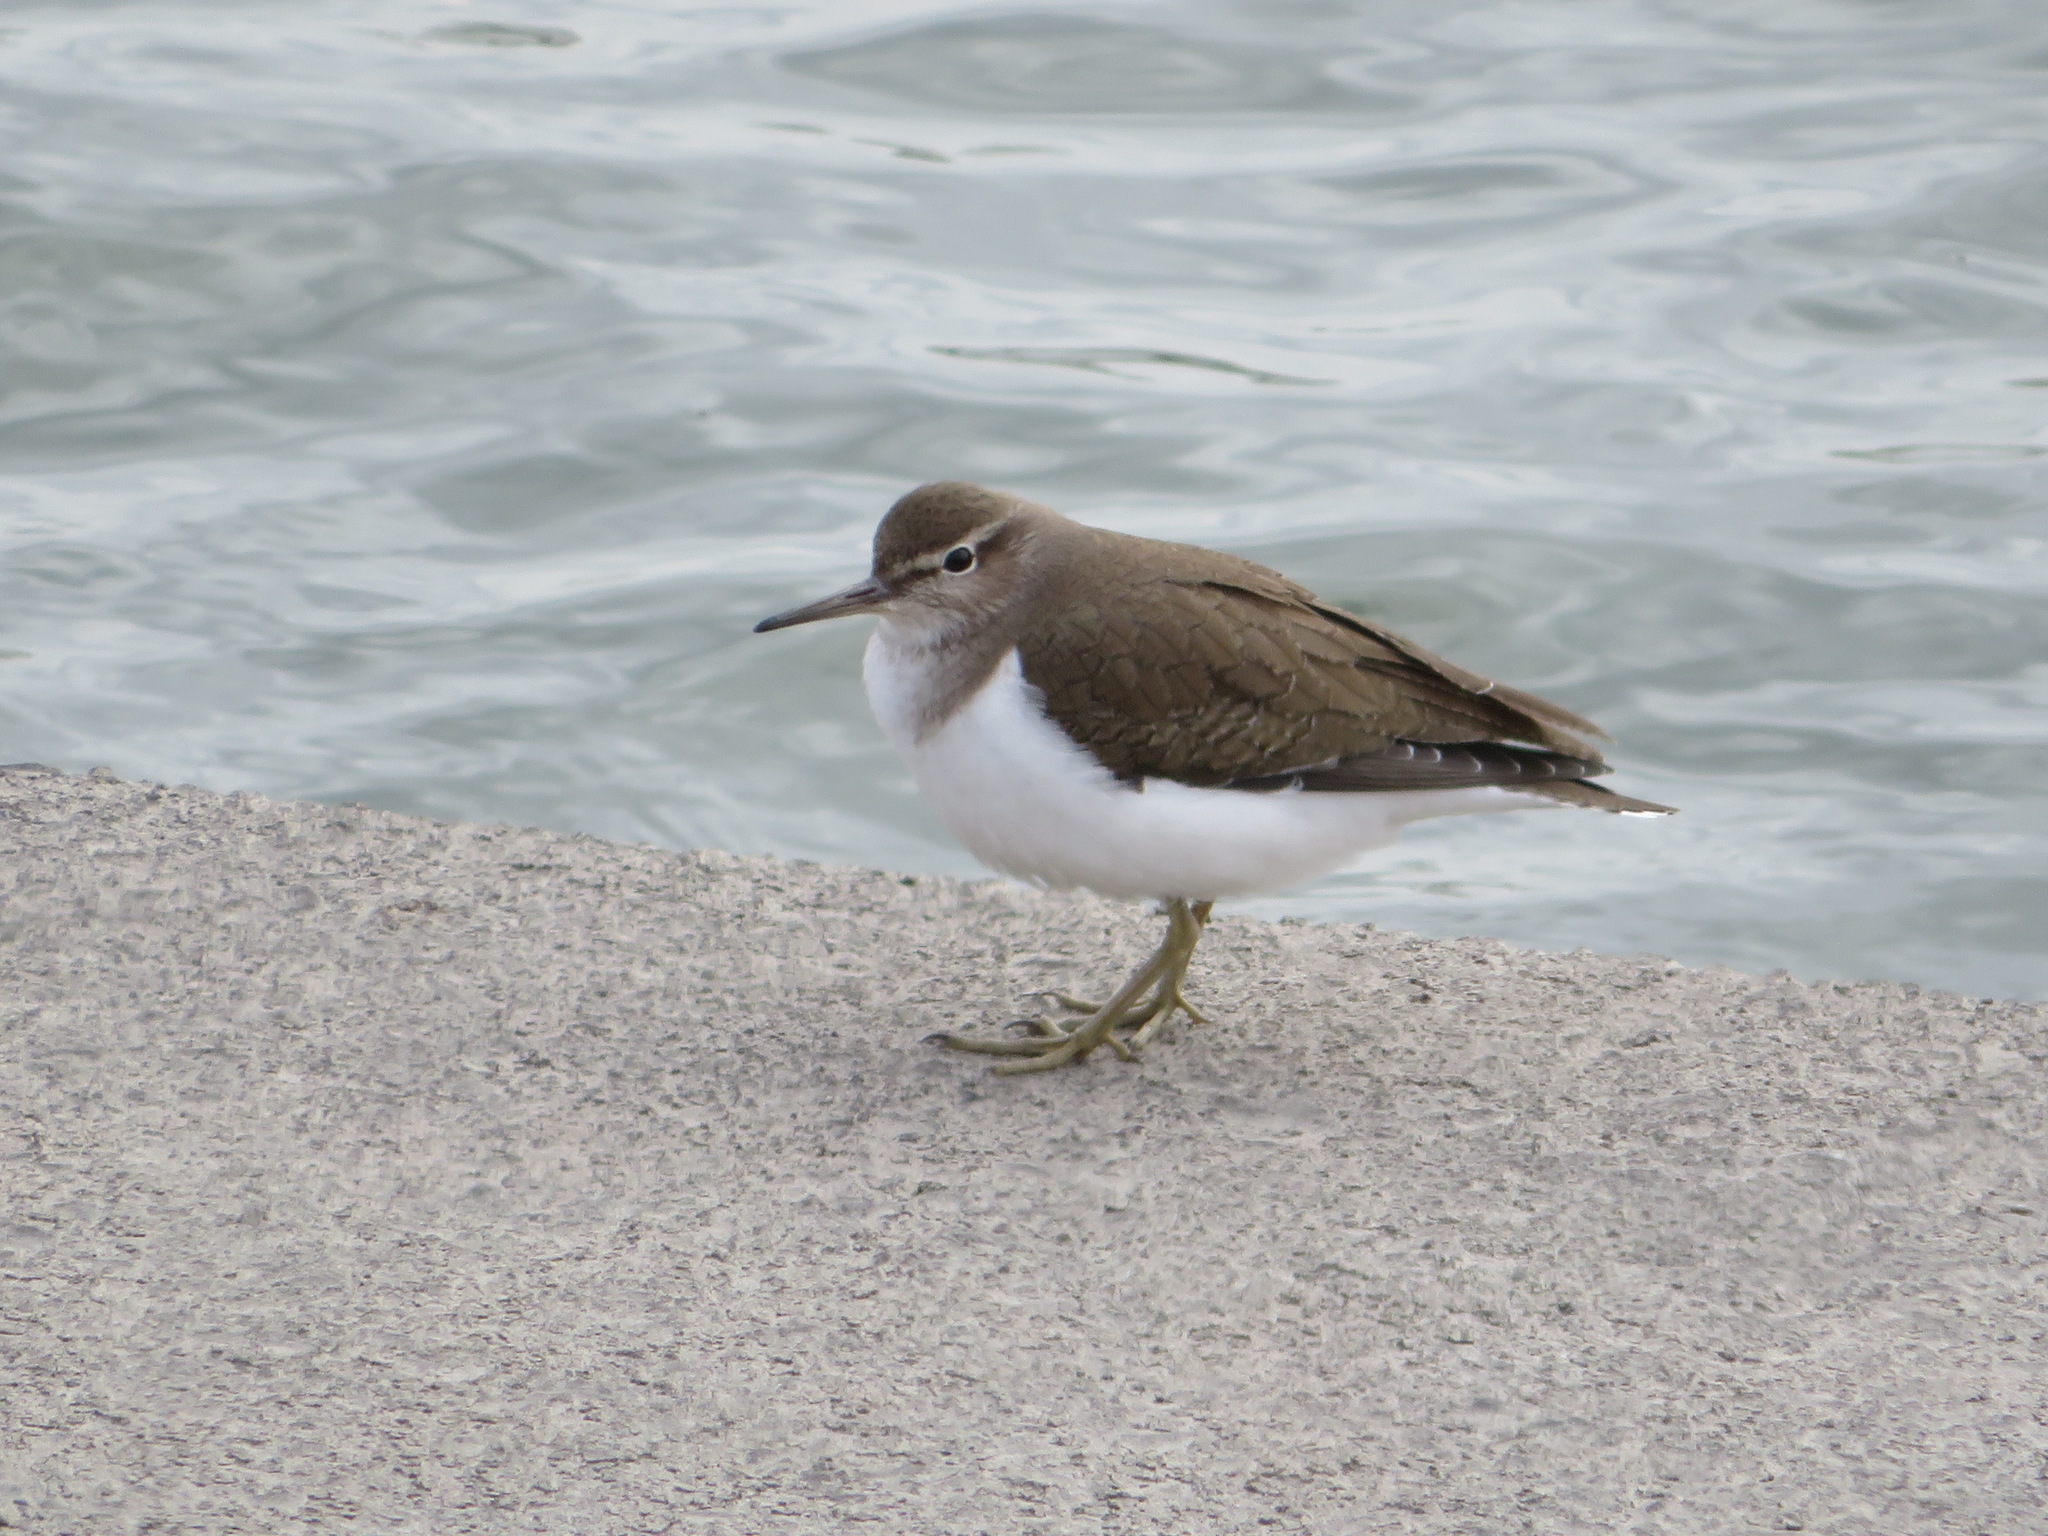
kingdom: Animalia
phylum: Chordata
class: Aves
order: Charadriiformes
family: Scolopacidae
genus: Actitis
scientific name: Actitis hypoleucos
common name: Common sandpiper
